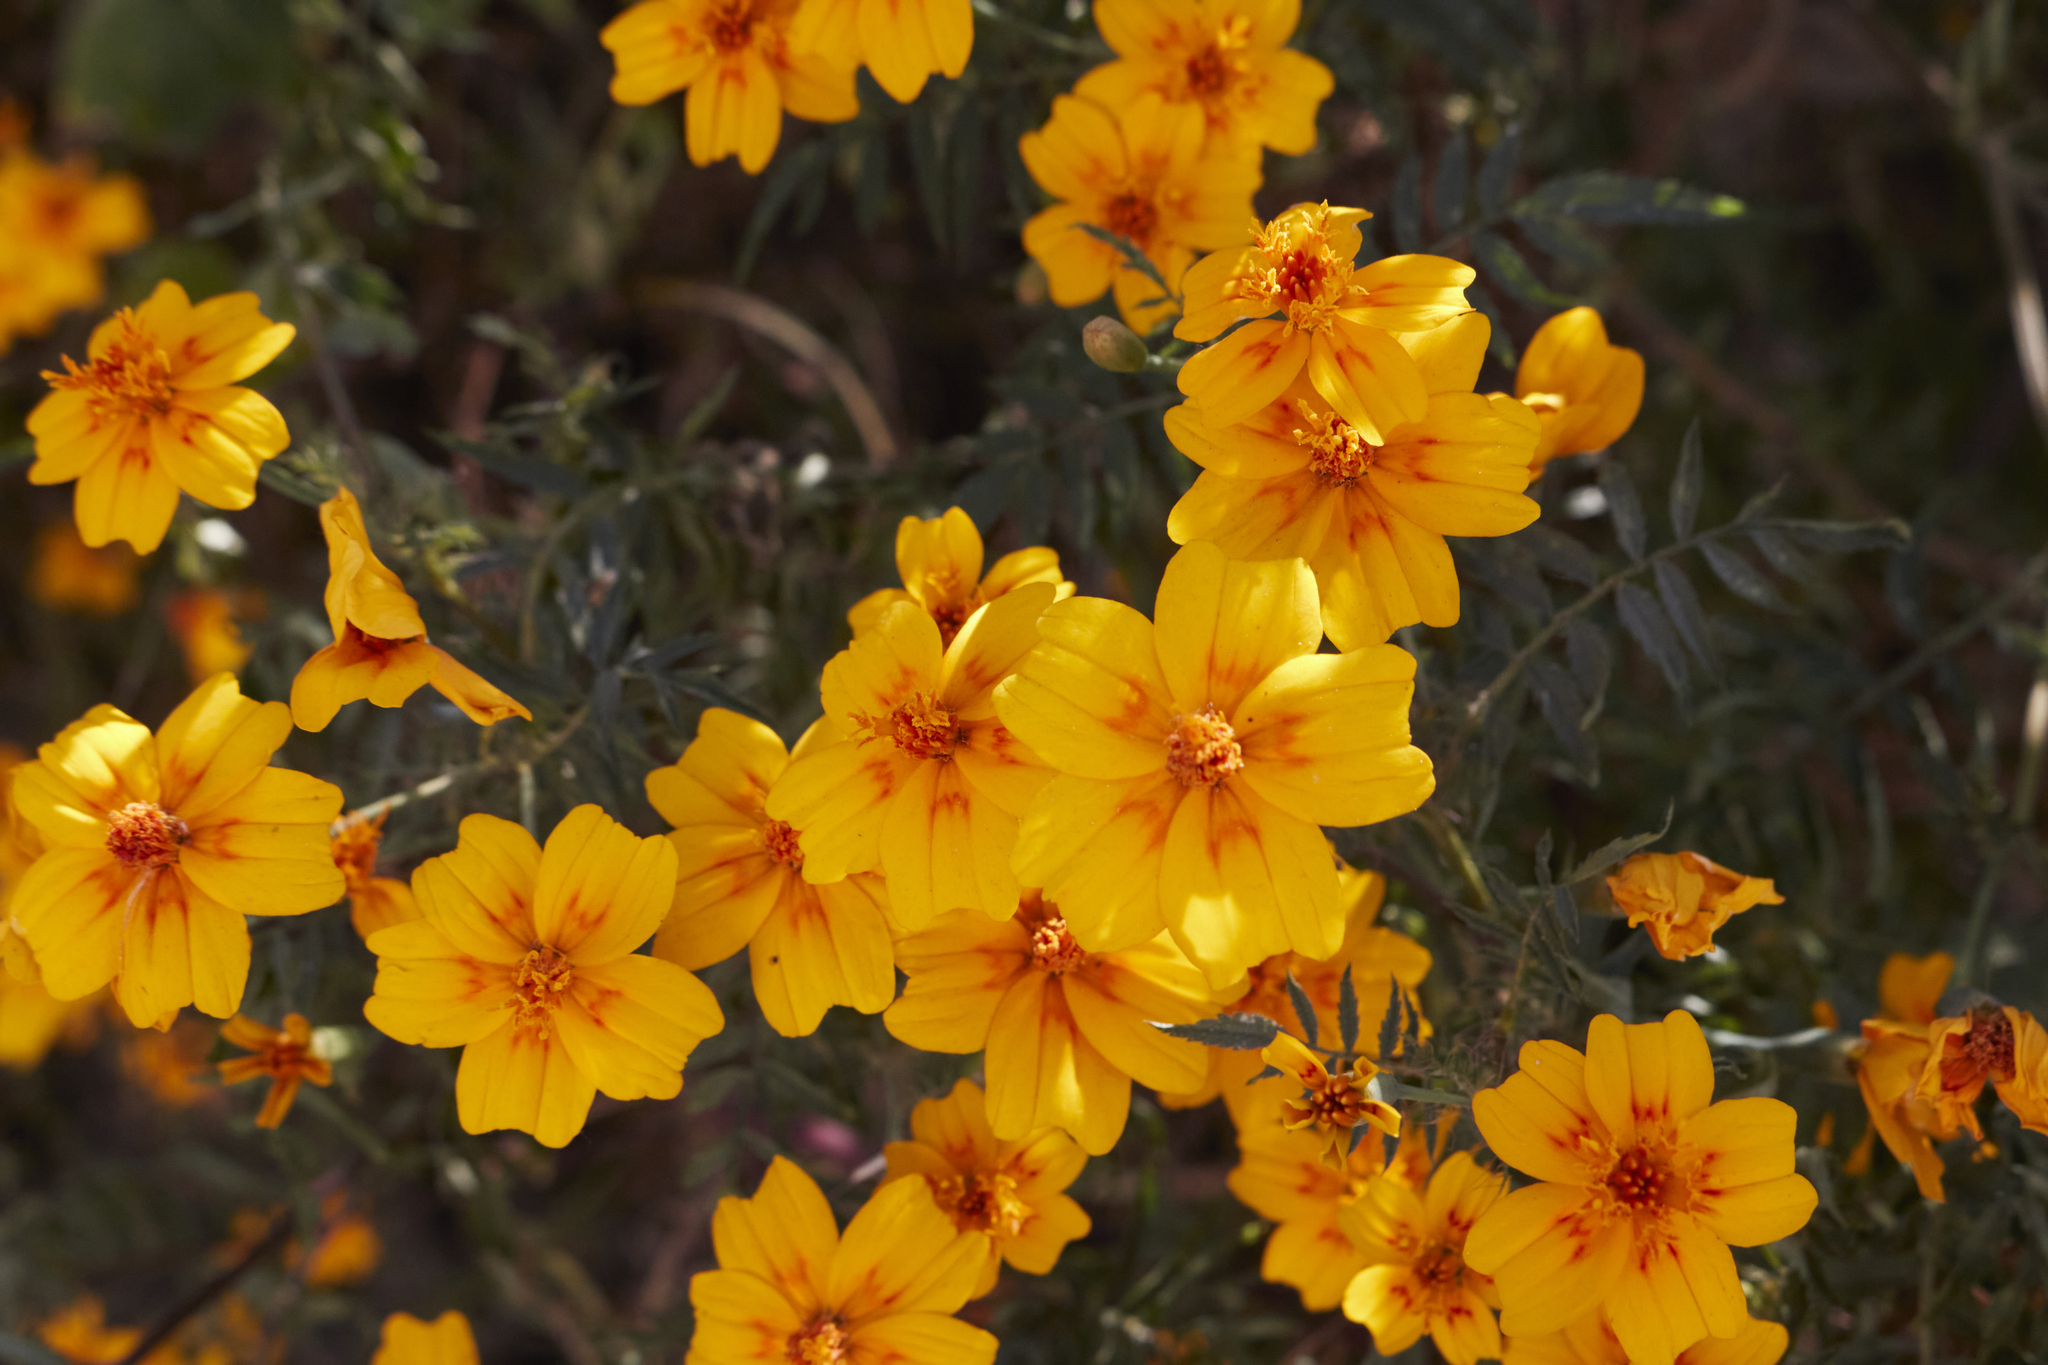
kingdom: Plantae
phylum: Tracheophyta
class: Magnoliopsida
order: Asterales
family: Asteraceae
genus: Tagetes
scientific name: Tagetes lunulata
